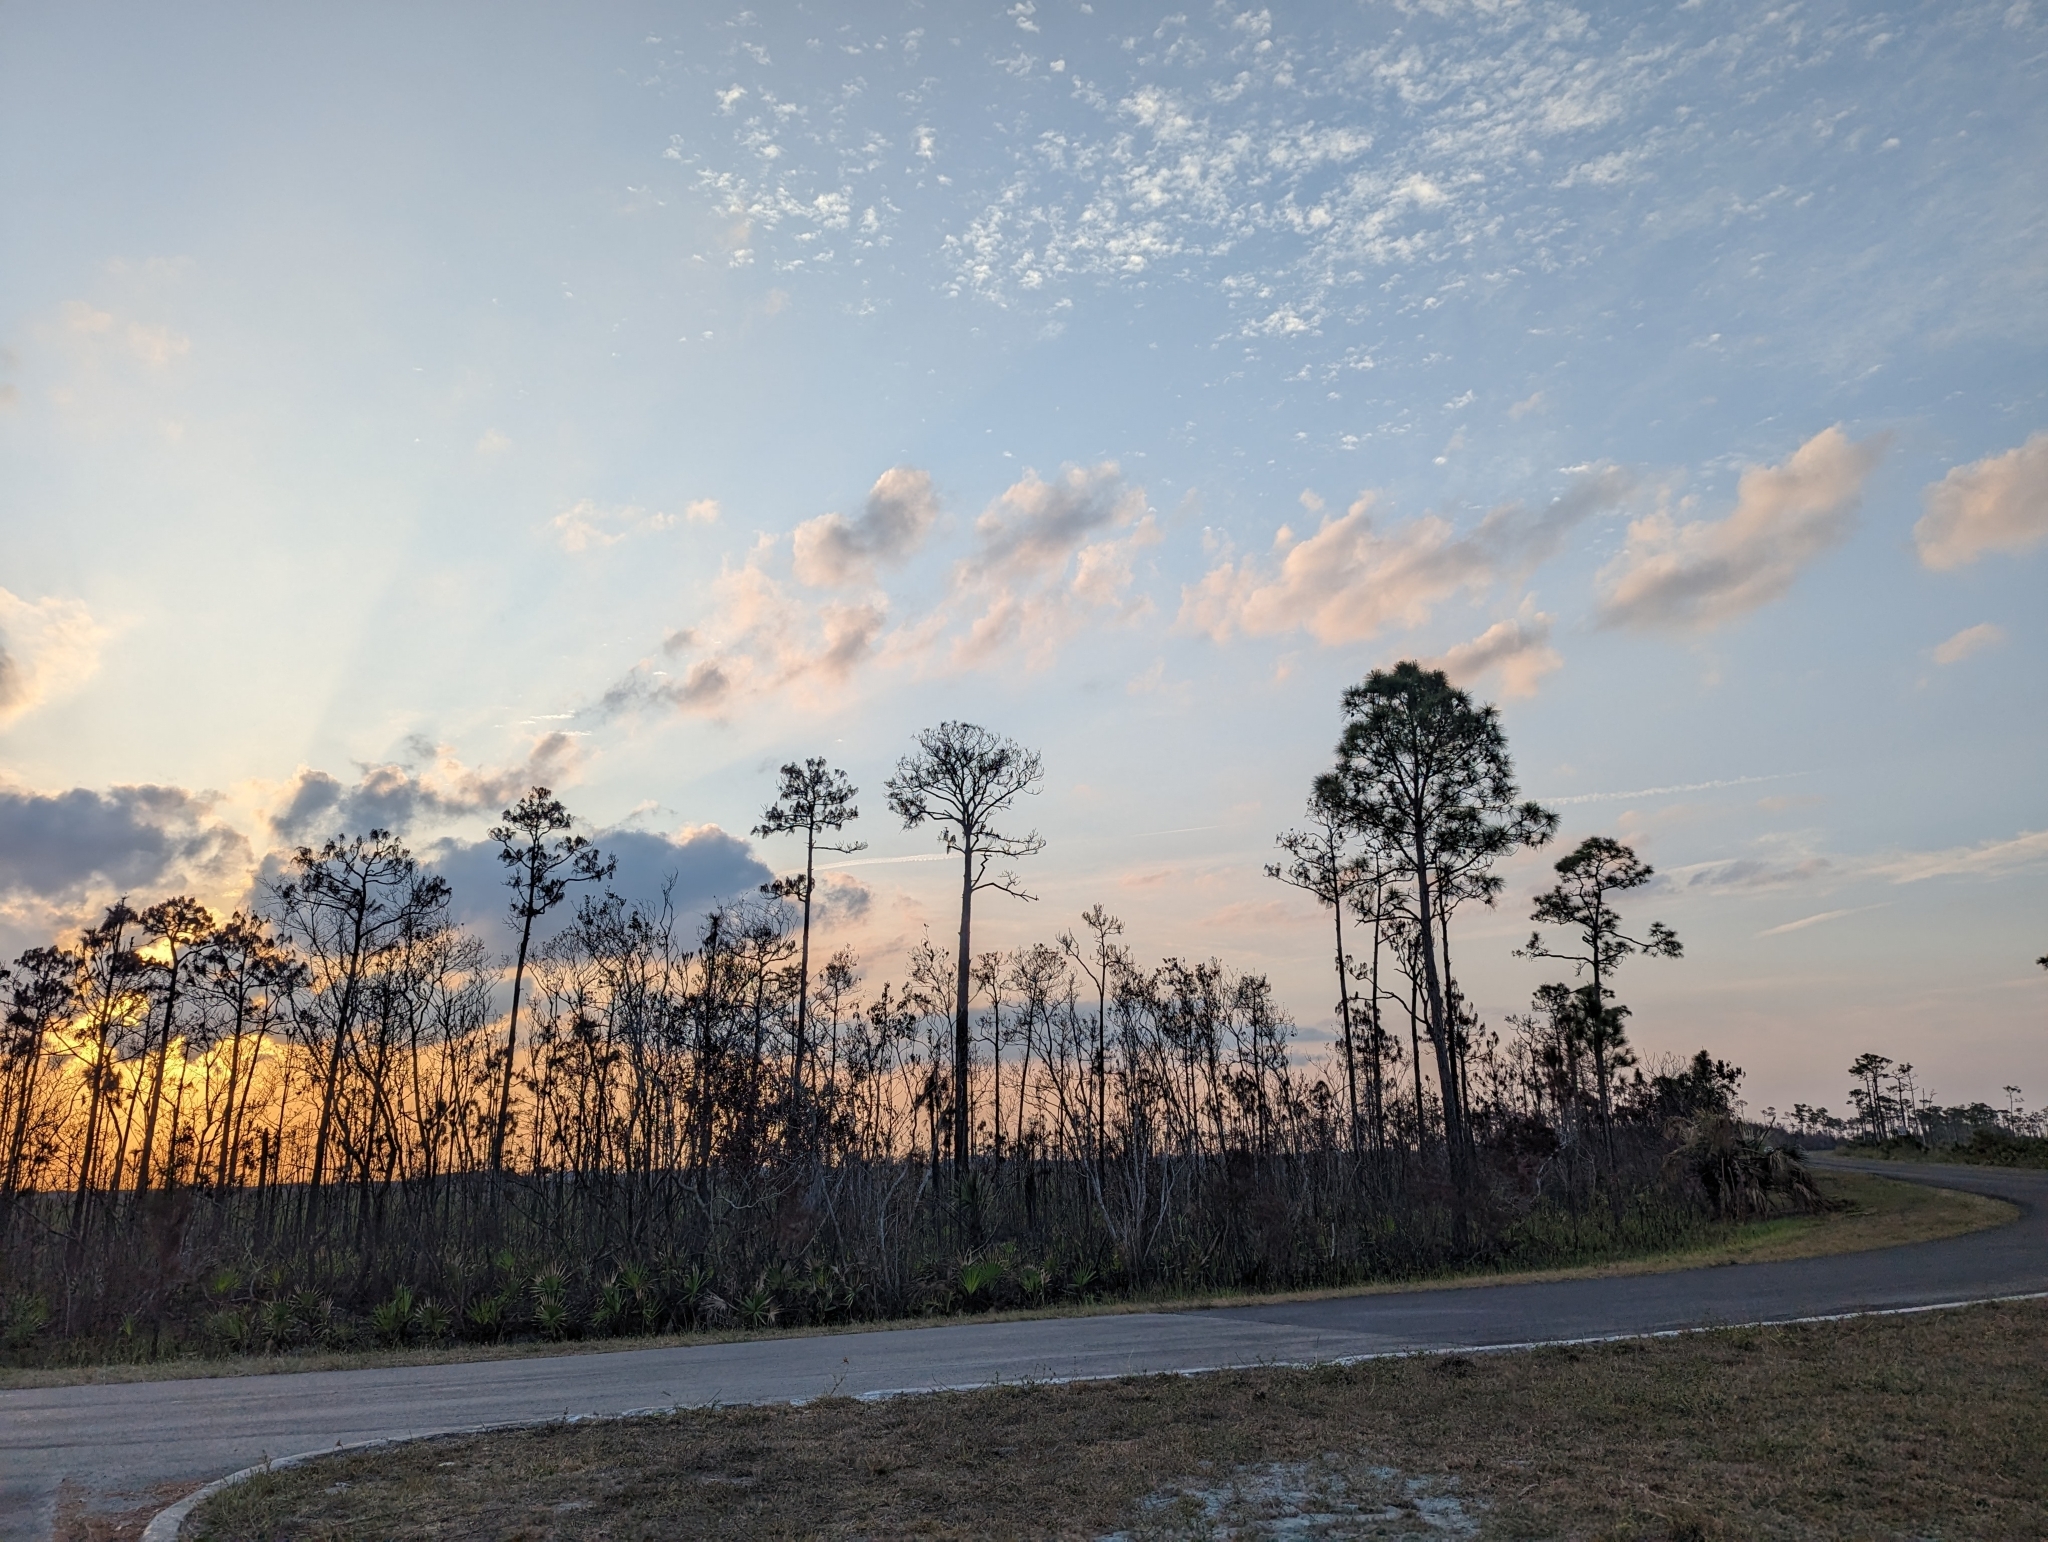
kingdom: Plantae
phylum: Tracheophyta
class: Pinopsida
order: Pinales
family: Pinaceae
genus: Pinus
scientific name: Pinus elliottii
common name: Slash pine
